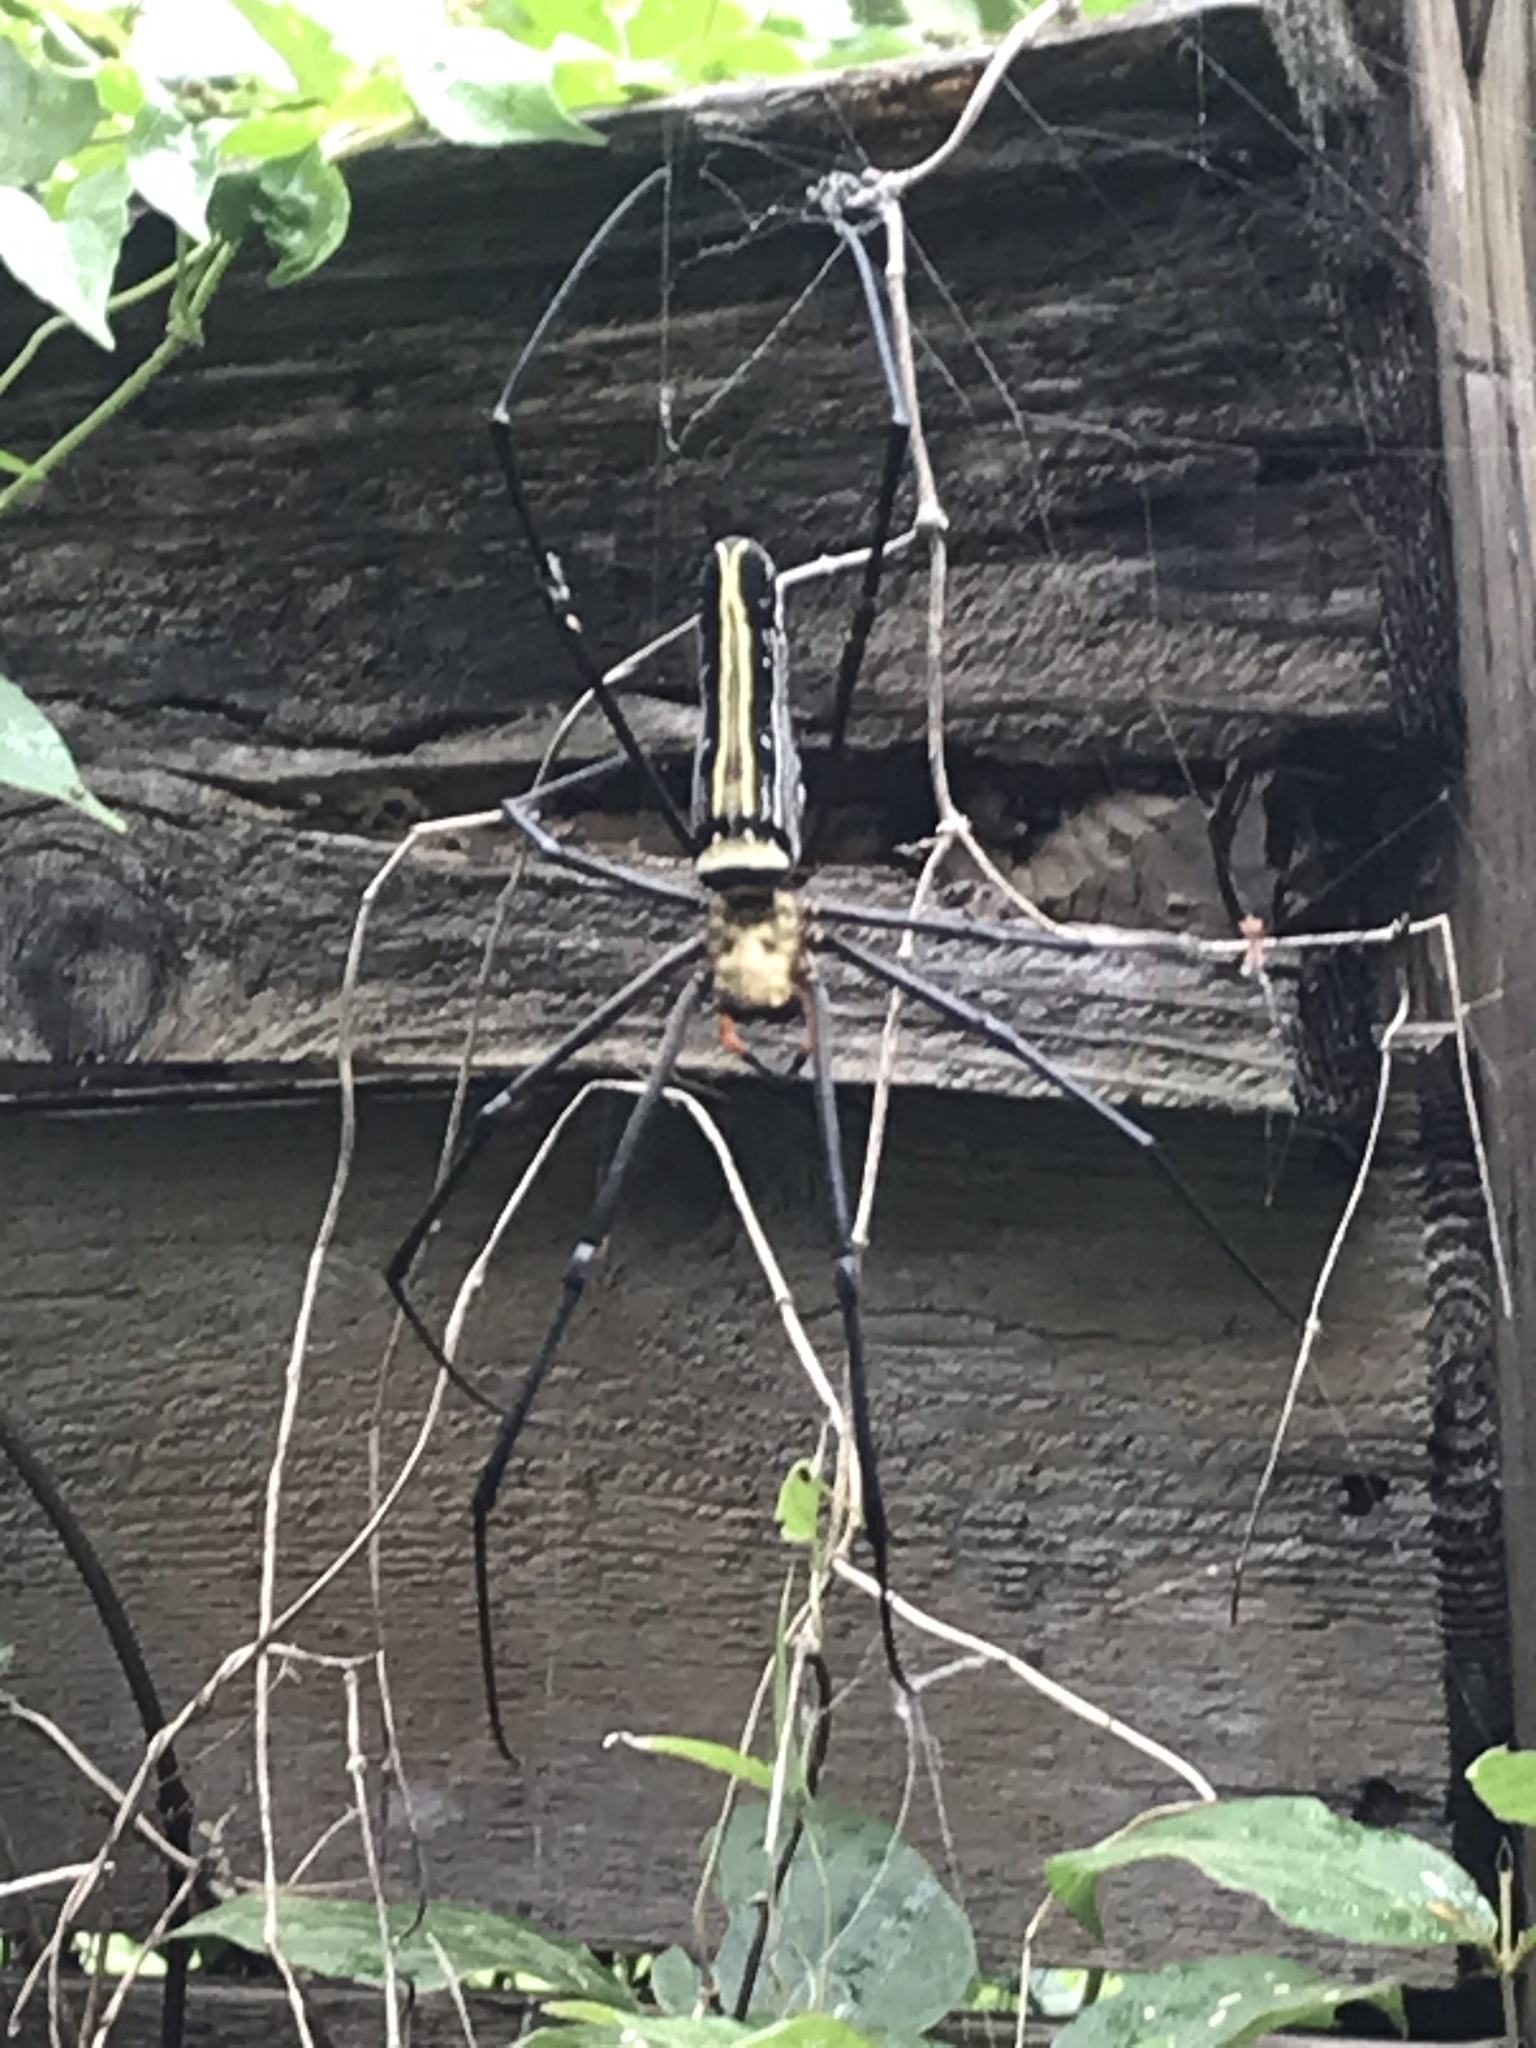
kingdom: Animalia
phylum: Arthropoda
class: Arachnida
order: Araneae
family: Araneidae
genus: Nephila
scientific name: Nephila pilipes
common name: Giant golden orb weaver
